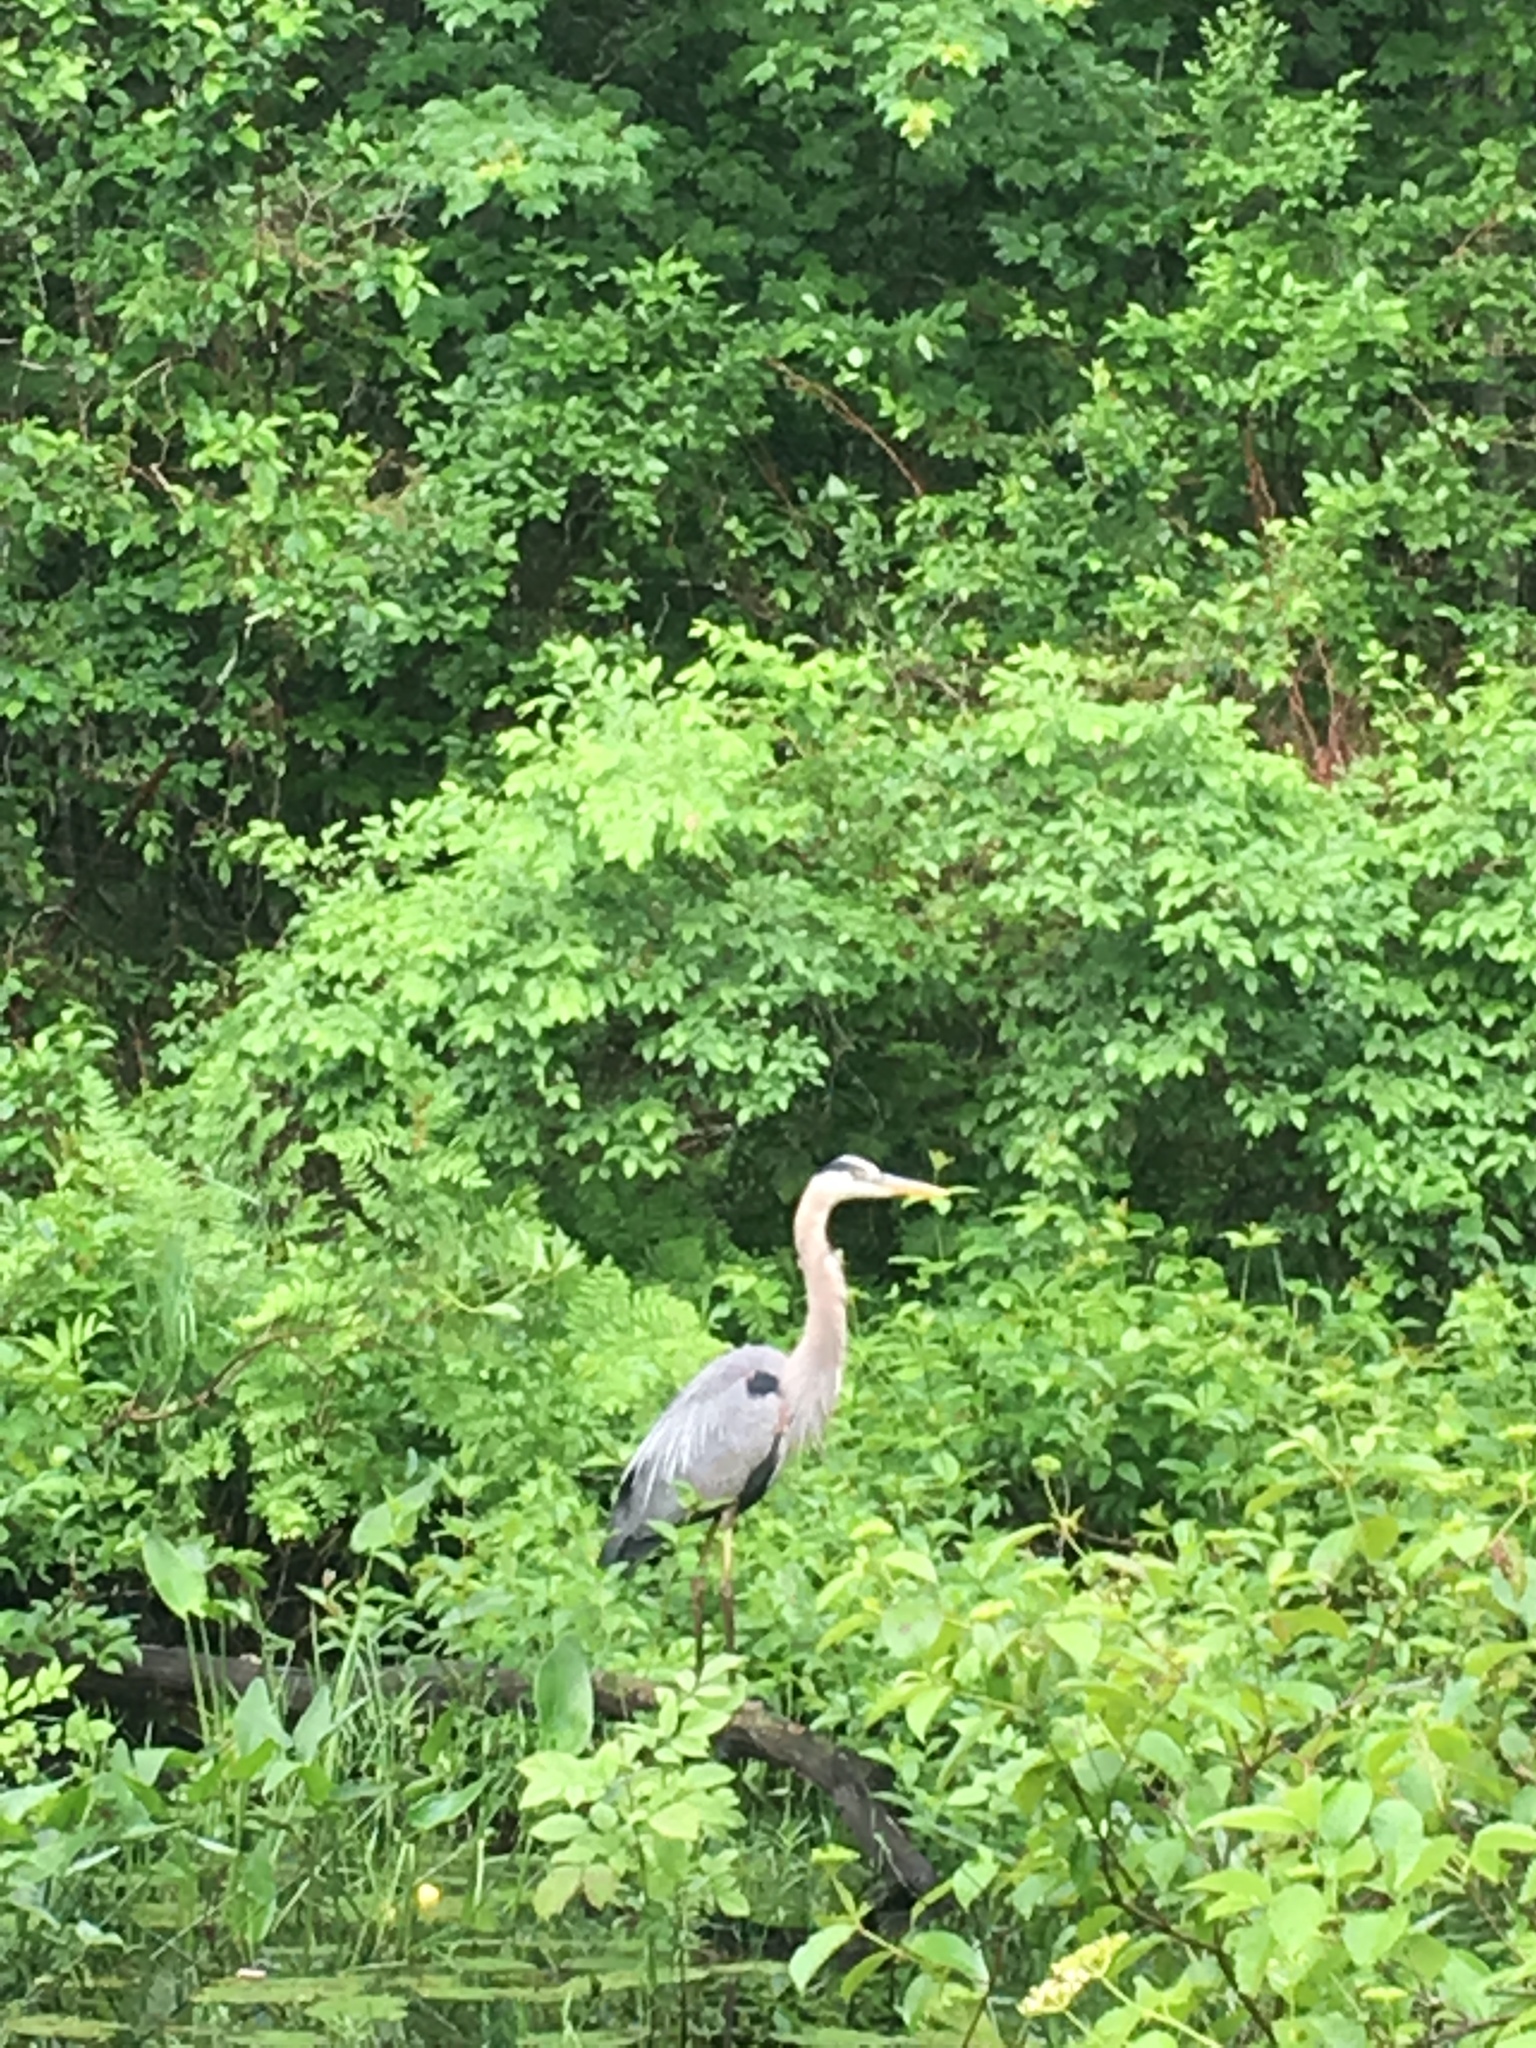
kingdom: Animalia
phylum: Chordata
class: Aves
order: Pelecaniformes
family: Ardeidae
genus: Ardea
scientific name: Ardea herodias
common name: Great blue heron
